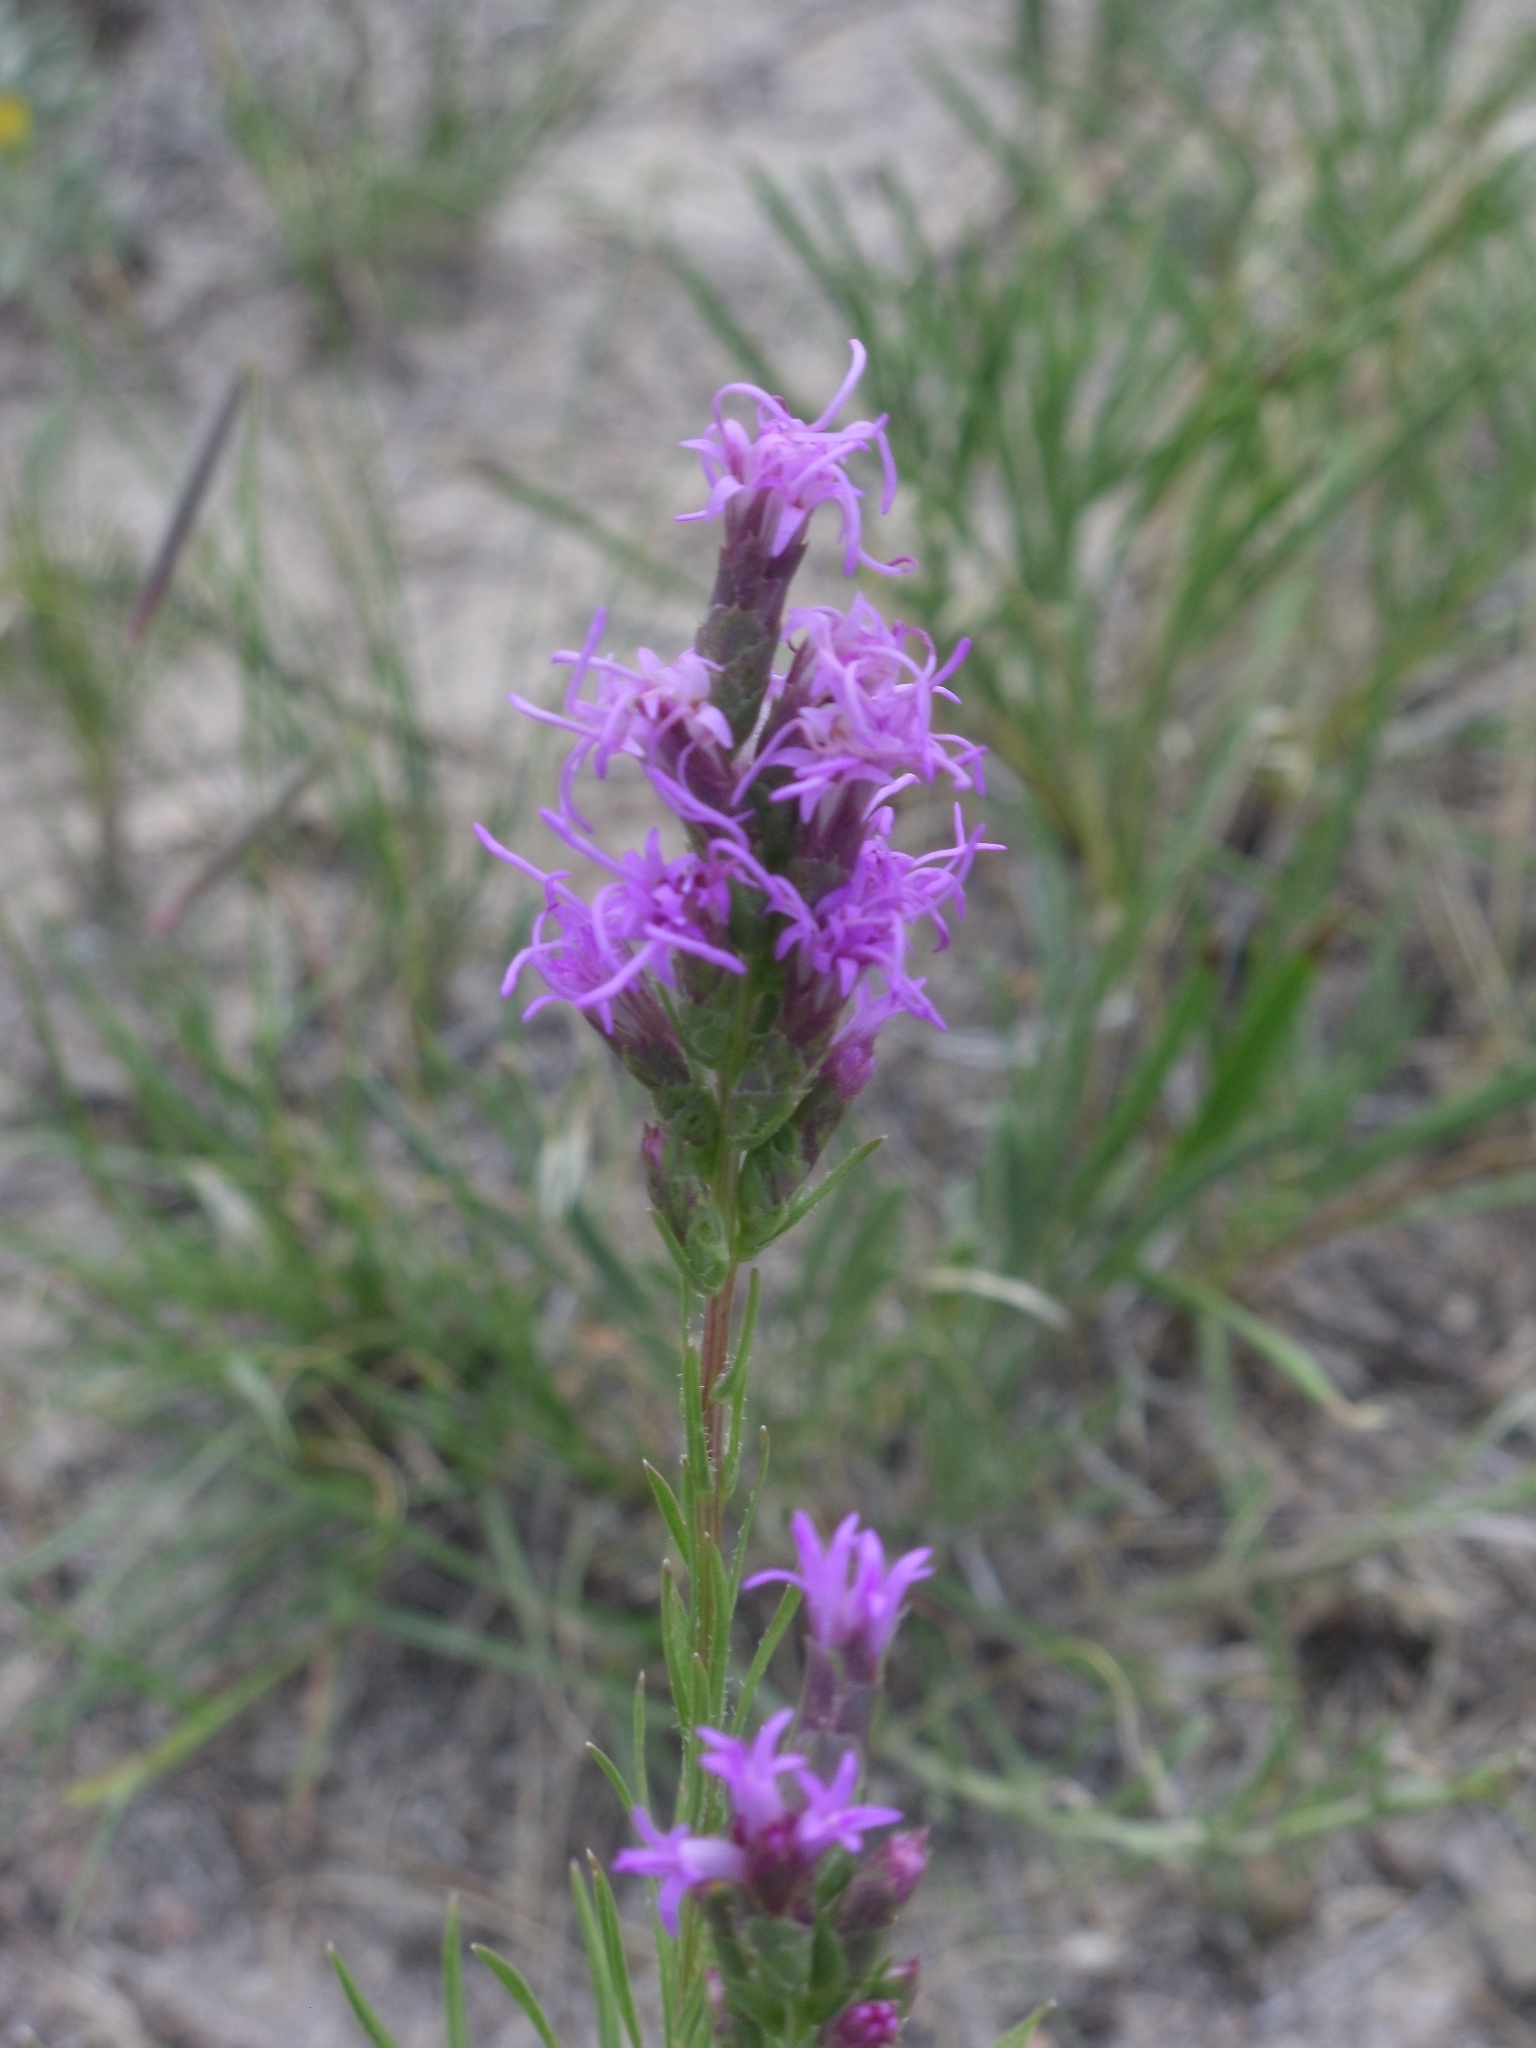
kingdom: Plantae
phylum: Tracheophyta
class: Magnoliopsida
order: Asterales
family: Asteraceae
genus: Liatris
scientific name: Liatris punctata
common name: Dotted gayfeather
